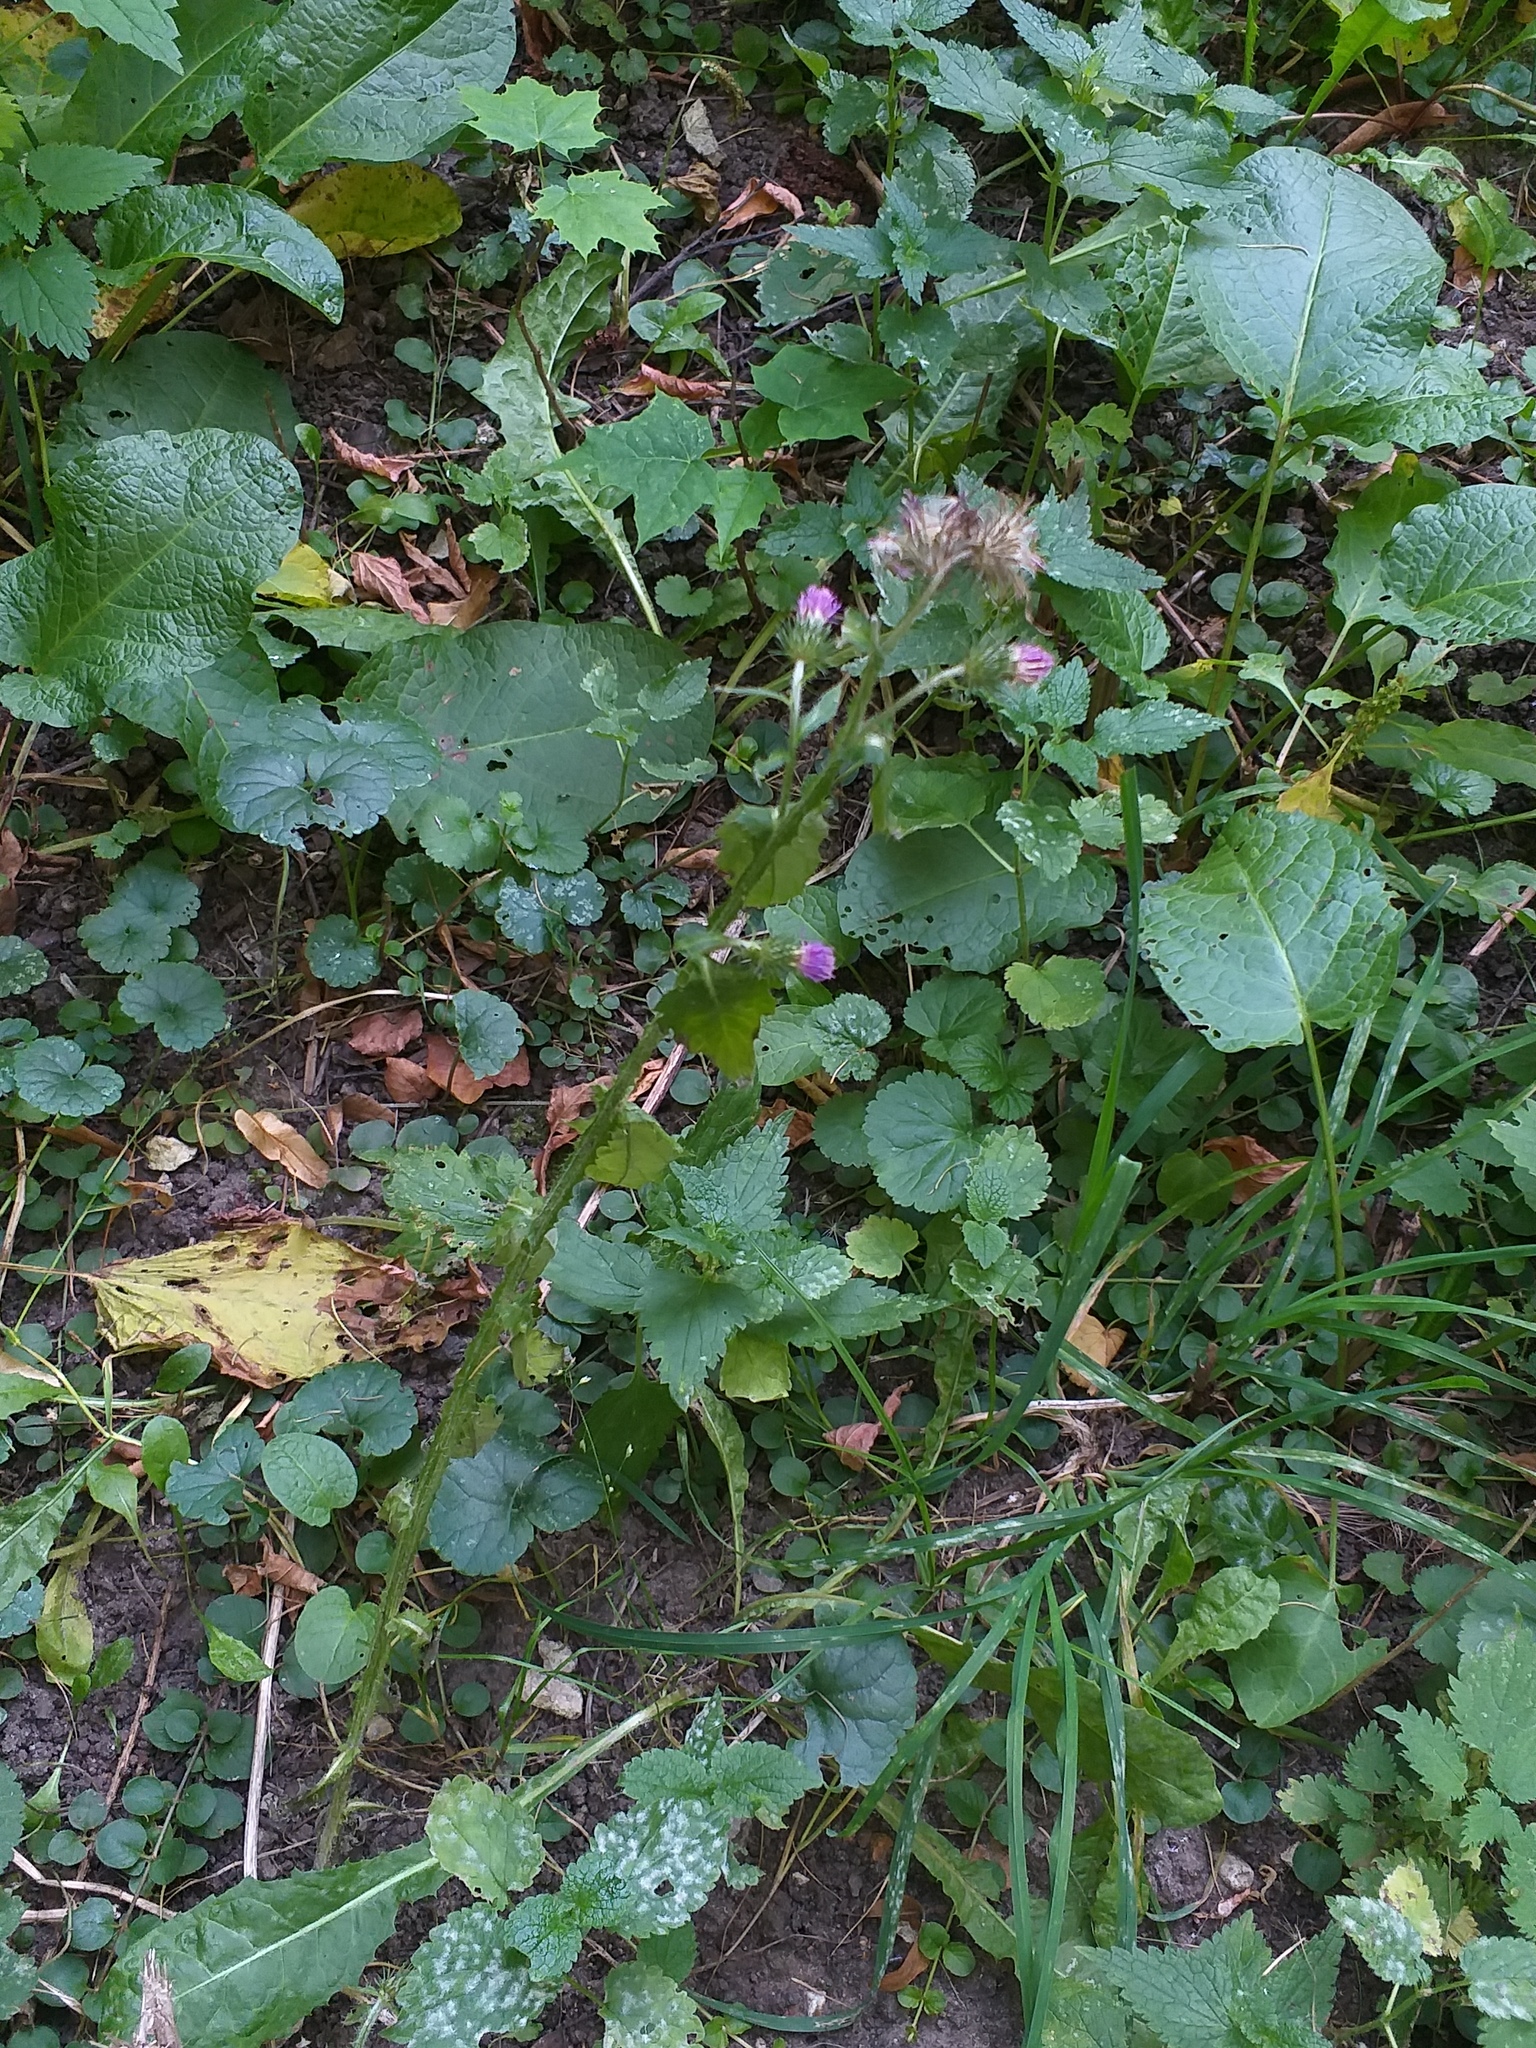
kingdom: Plantae
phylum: Tracheophyta
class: Magnoliopsida
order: Asterales
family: Asteraceae
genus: Carduus
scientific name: Carduus crispus
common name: Welted thistle
